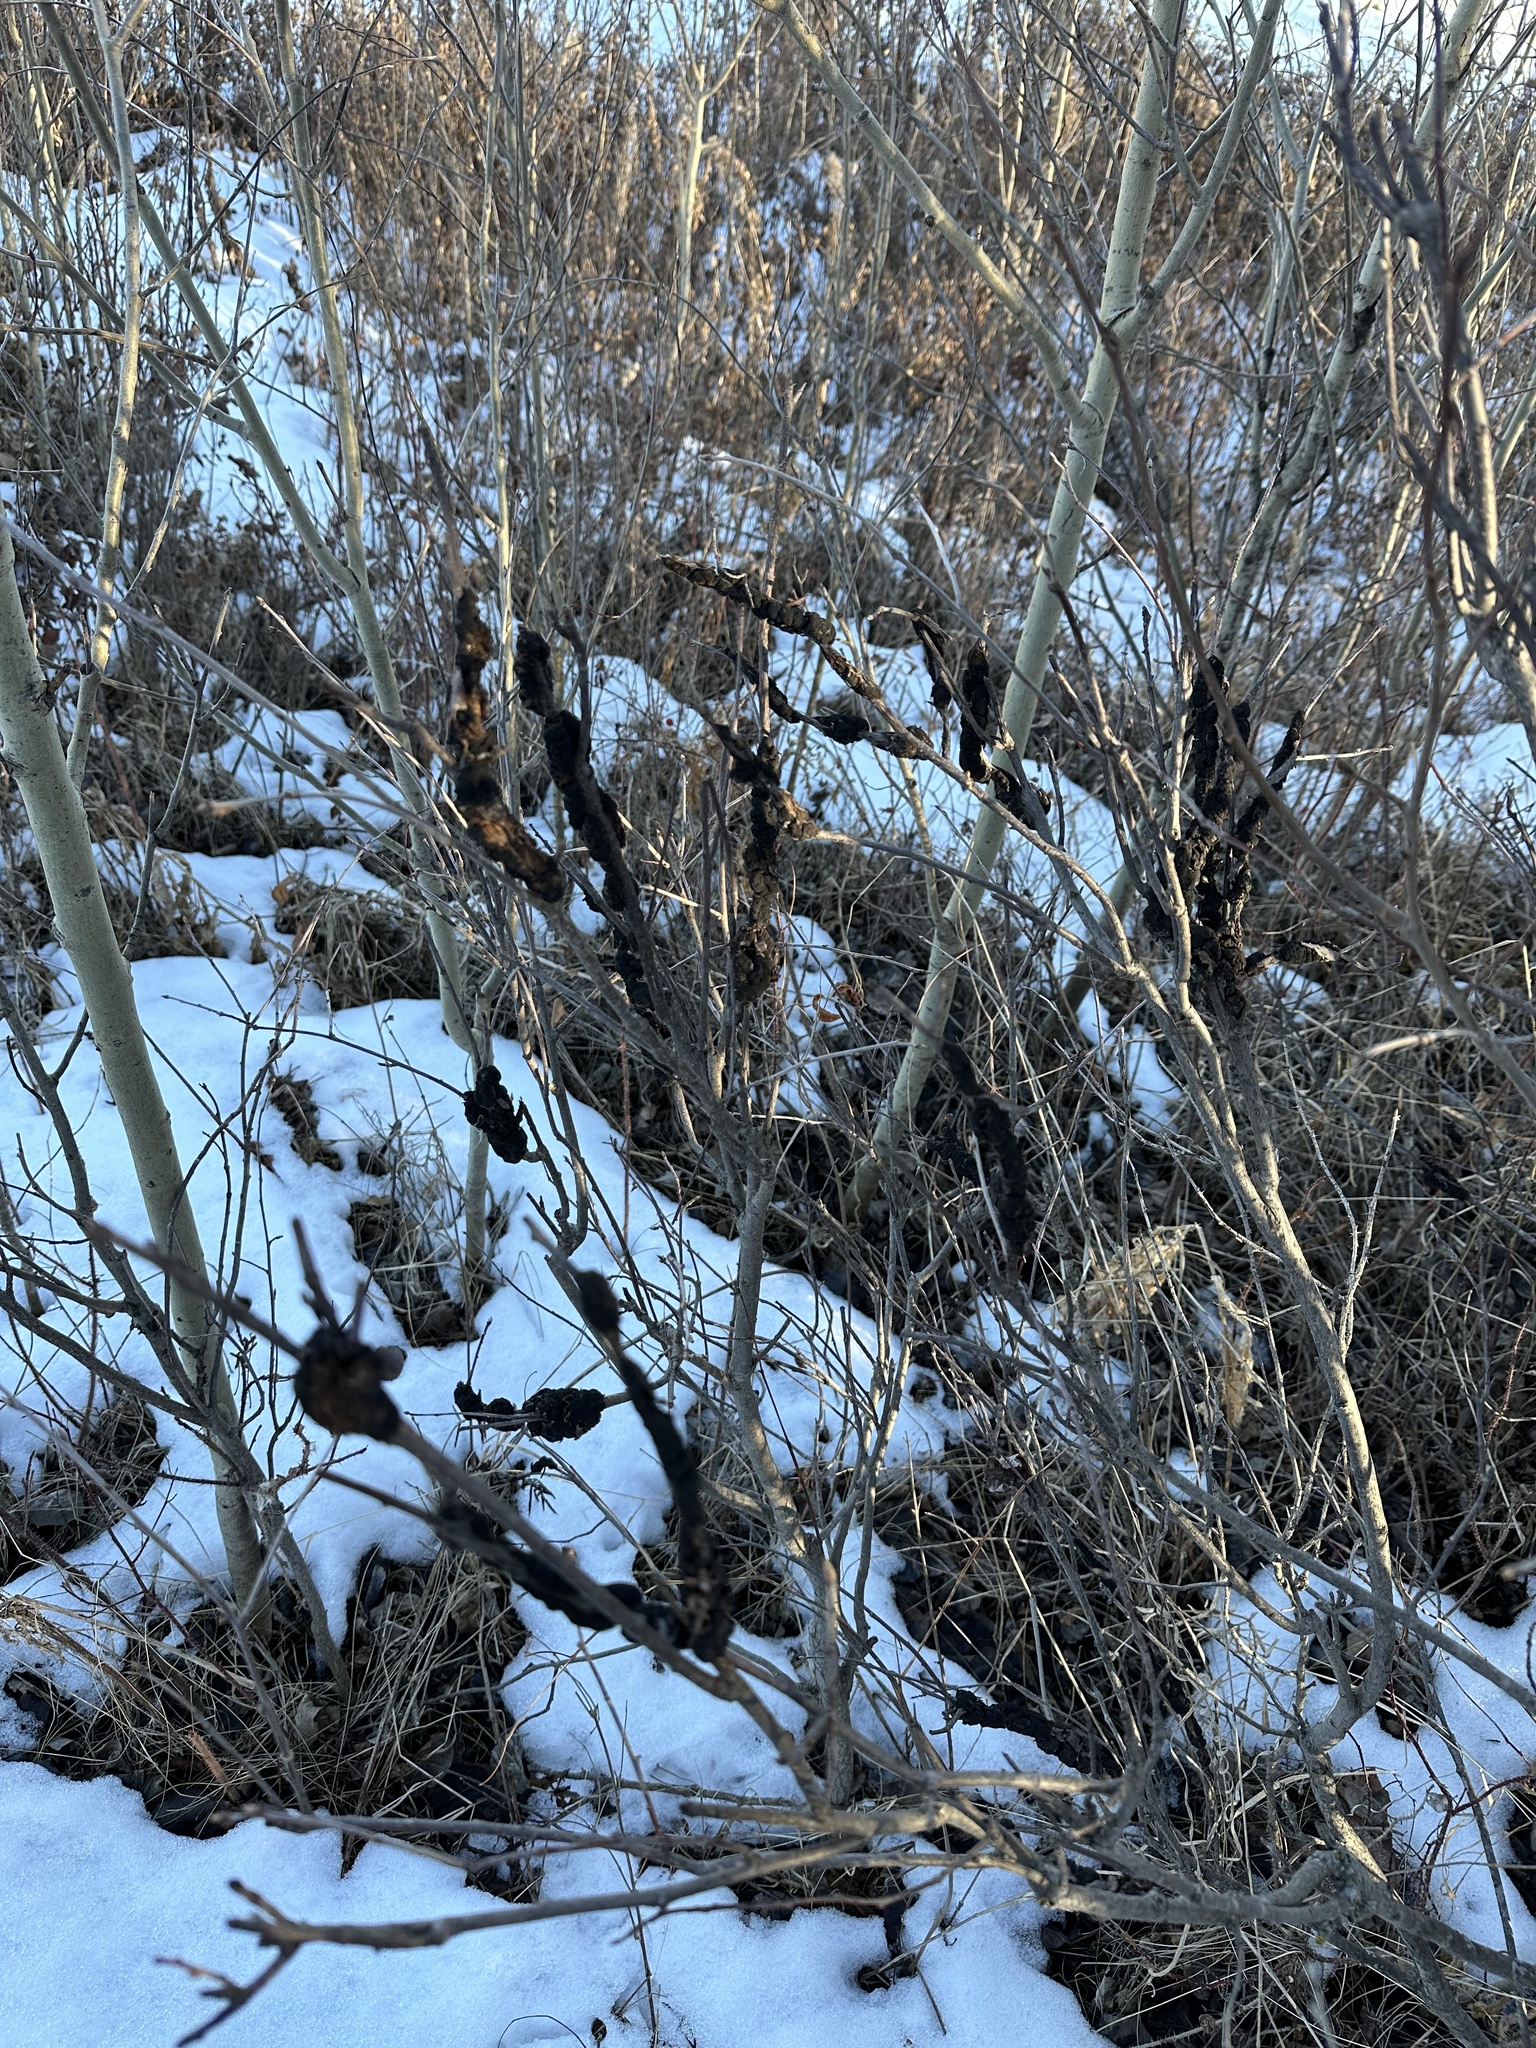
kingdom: Fungi
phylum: Ascomycota
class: Dothideomycetes
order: Venturiales
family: Venturiaceae
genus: Apiosporina
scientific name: Apiosporina morbosa
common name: Black knot
